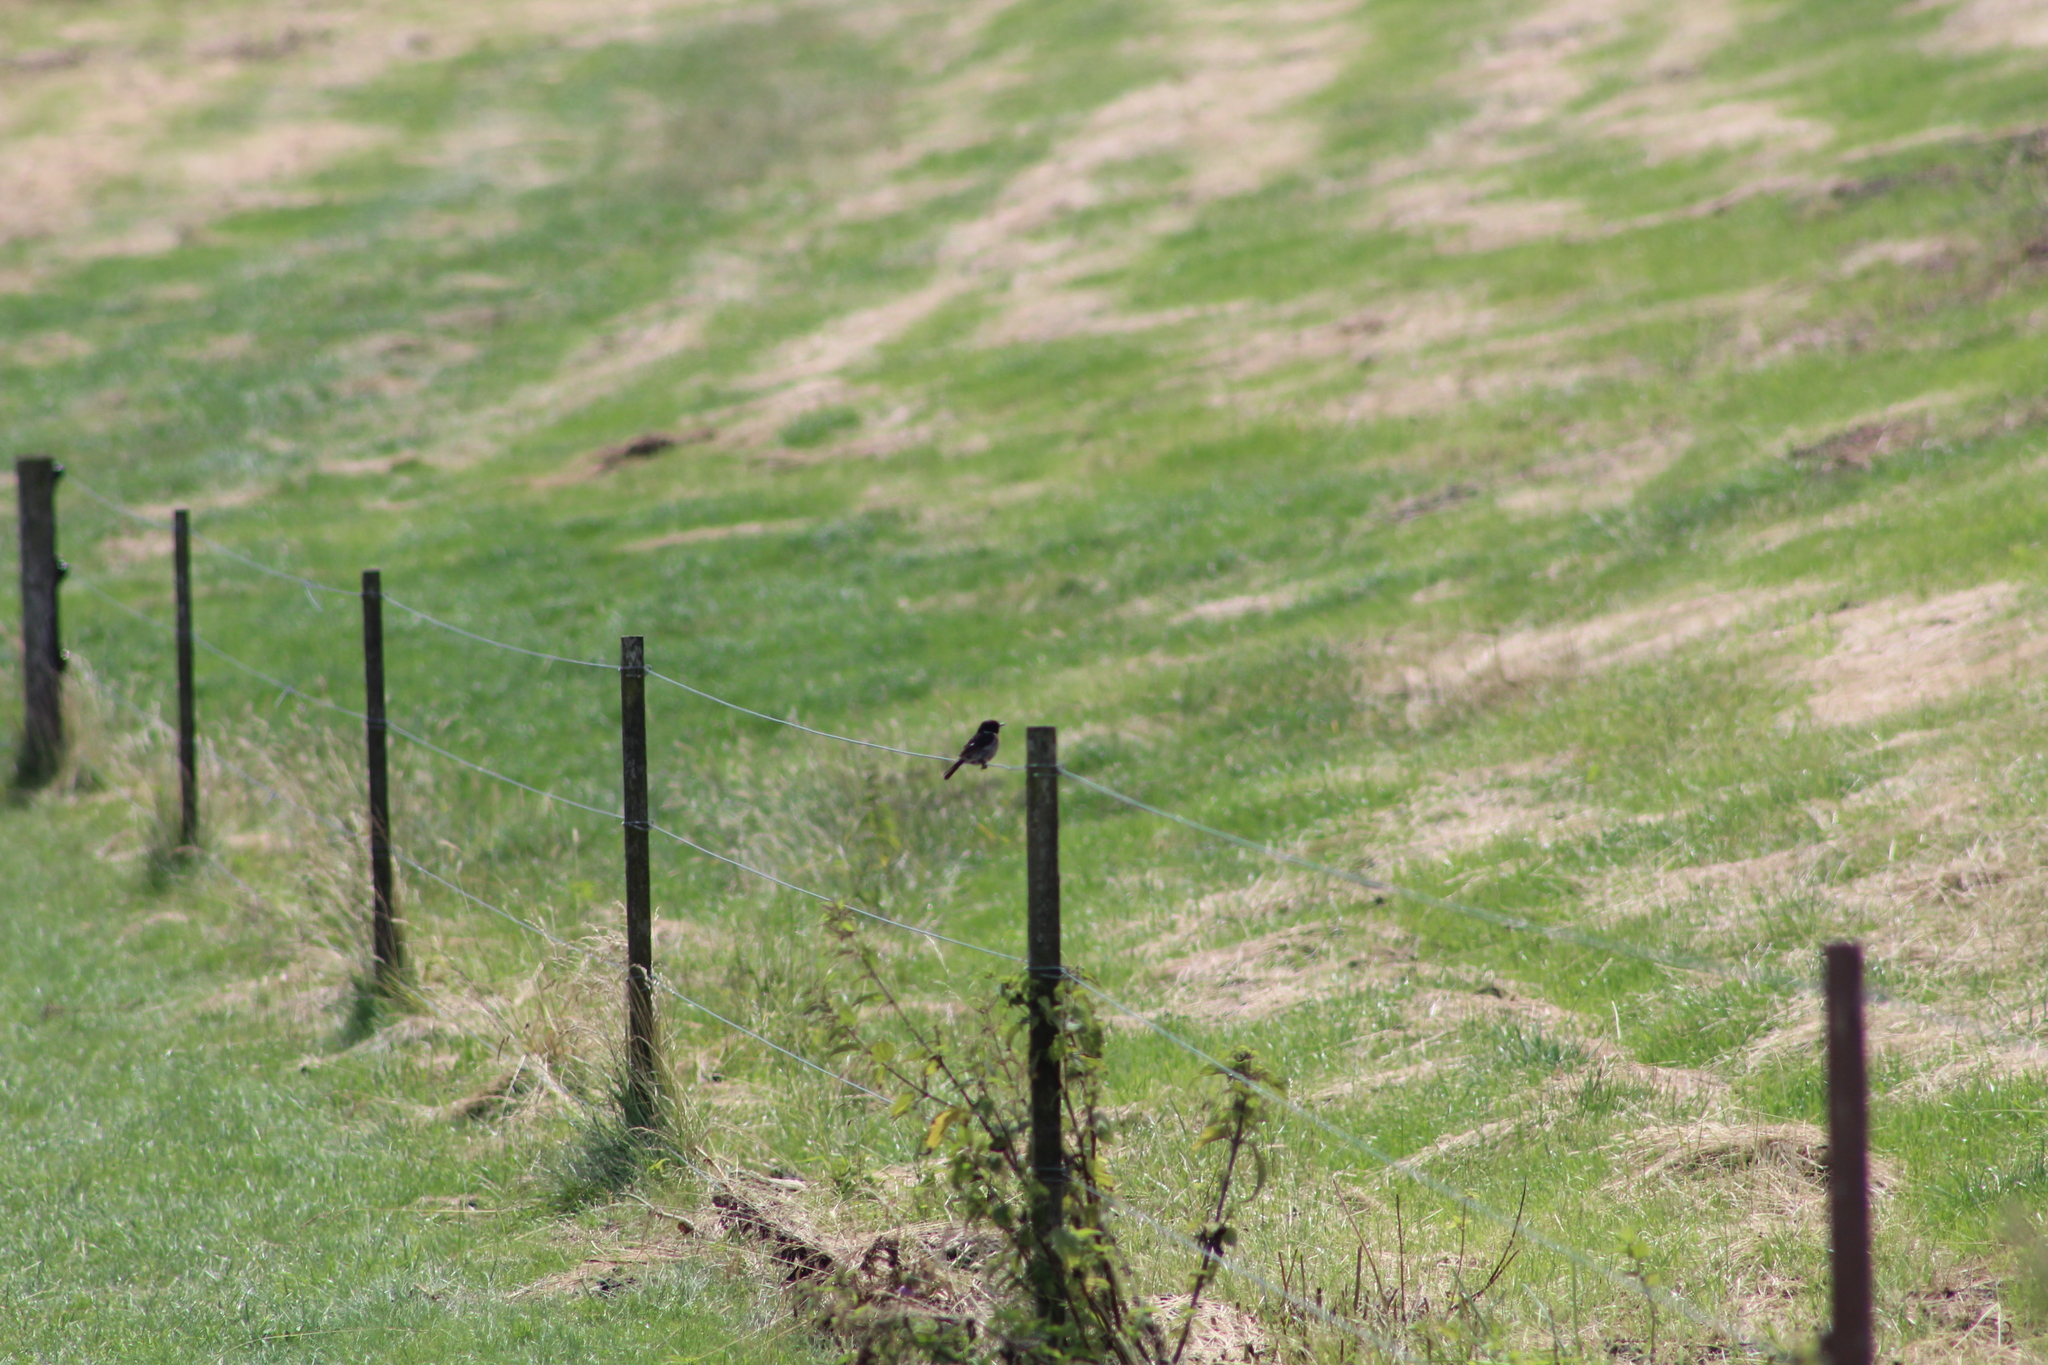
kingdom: Animalia
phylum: Chordata
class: Aves
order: Passeriformes
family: Muscicapidae
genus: Saxicola
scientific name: Saxicola rubicola
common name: European stonechat
